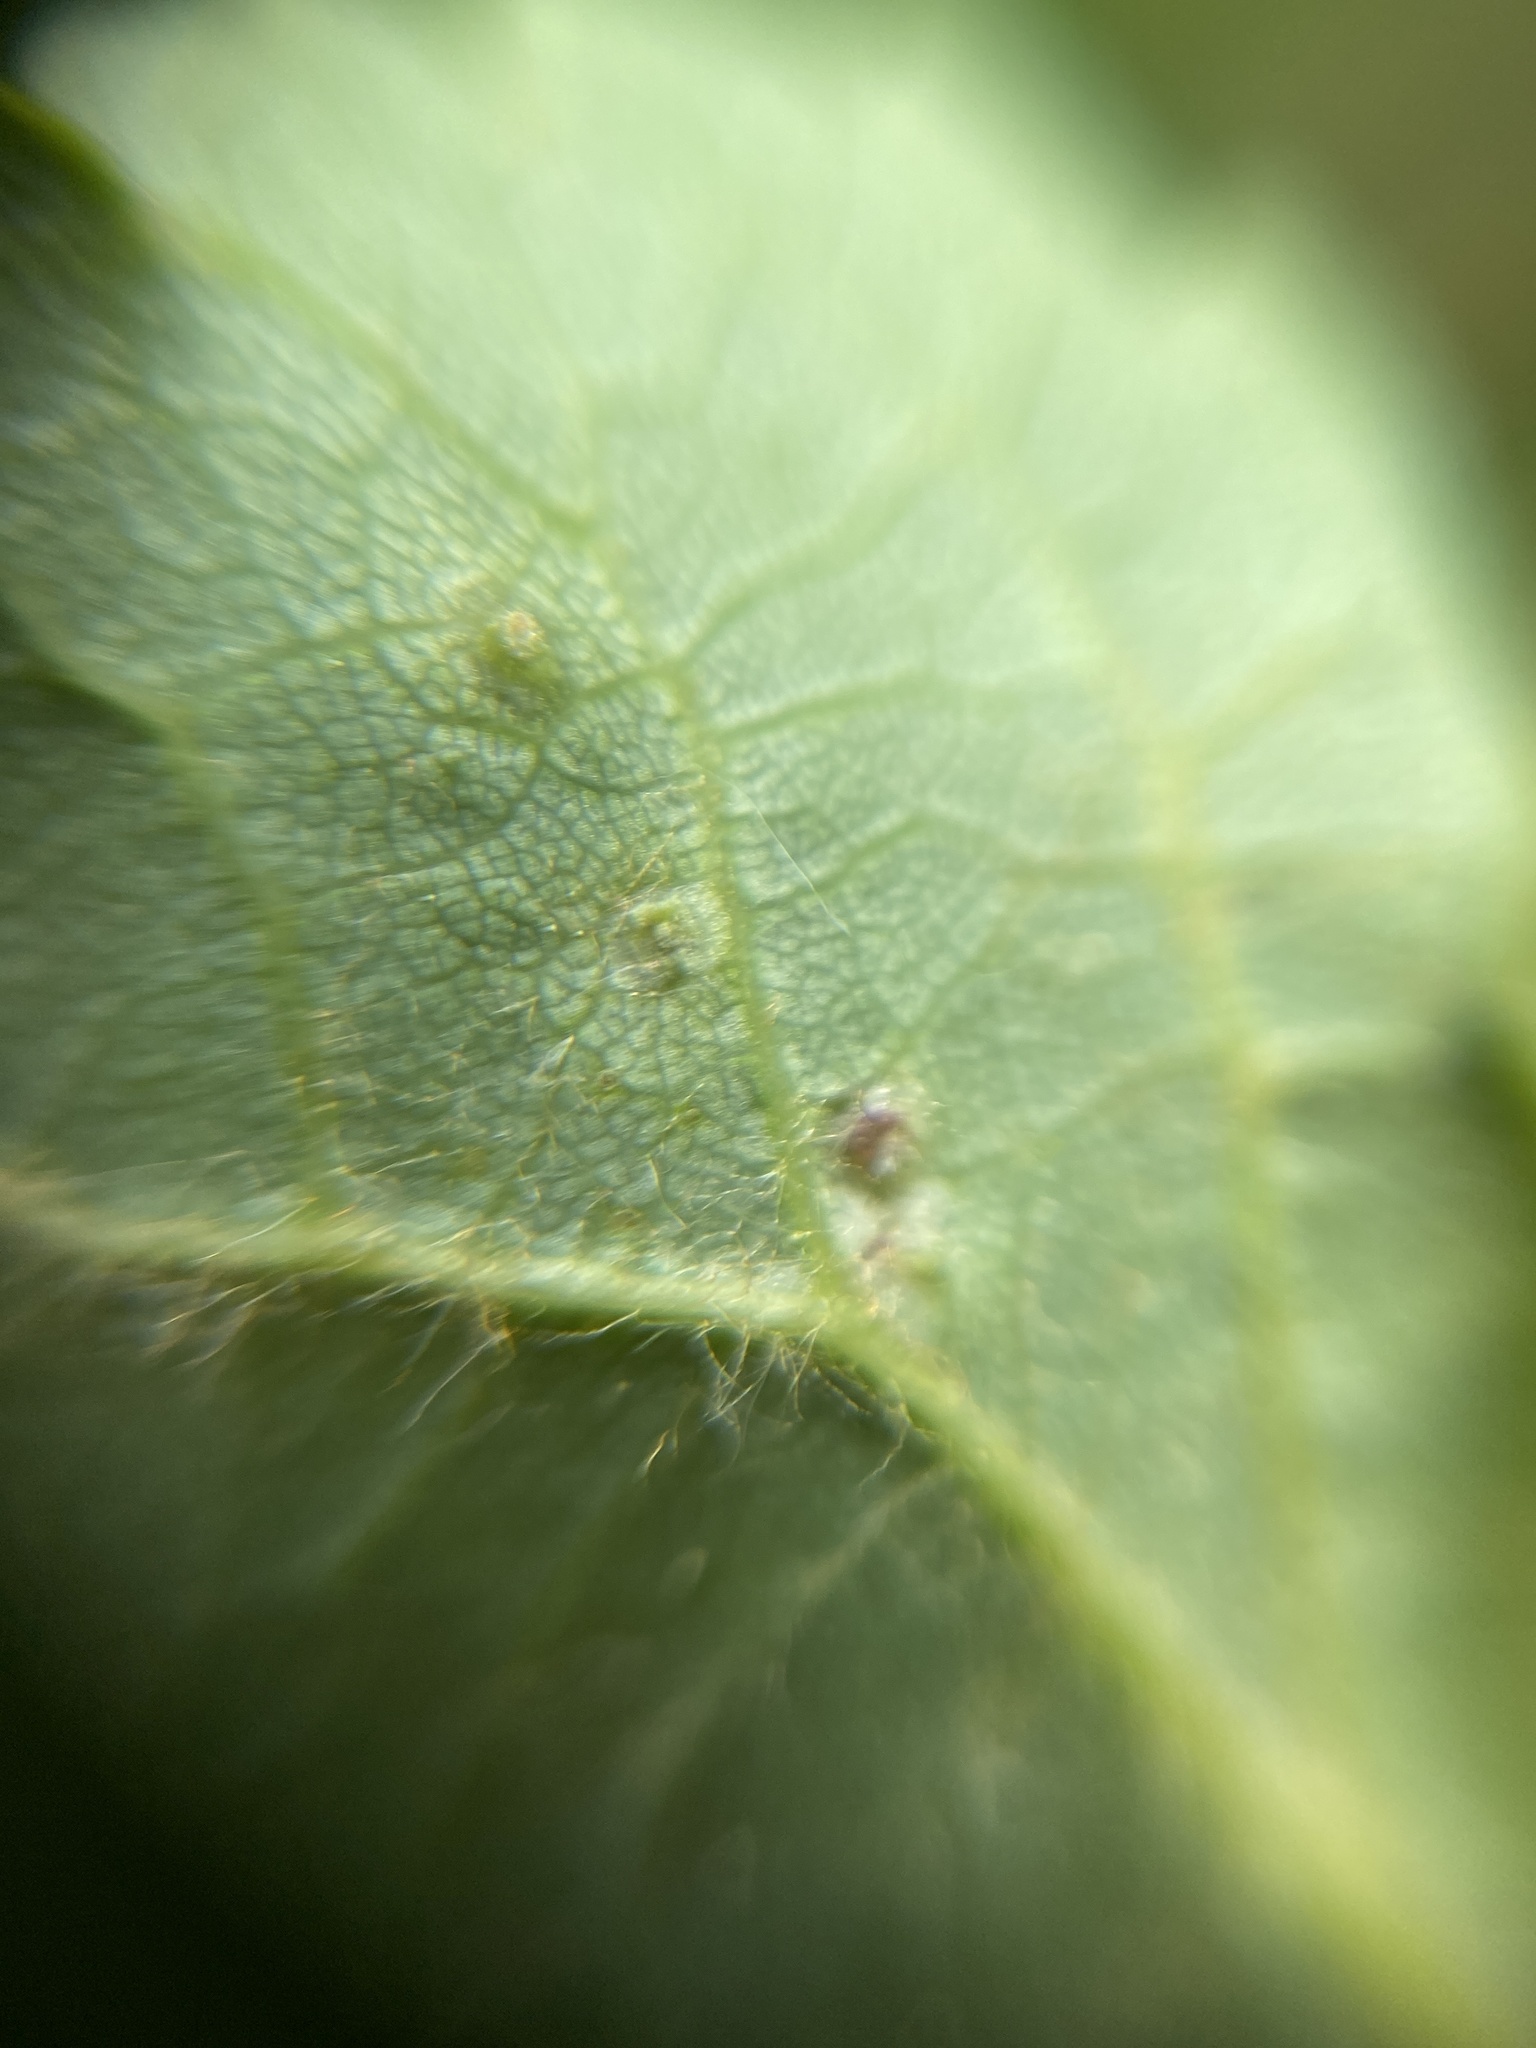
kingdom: Animalia
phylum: Arthropoda
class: Arachnida
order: Trombidiformes
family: Eriophyidae
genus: Eriophyes
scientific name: Eriophyes tiliae
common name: Red nail gall mite
